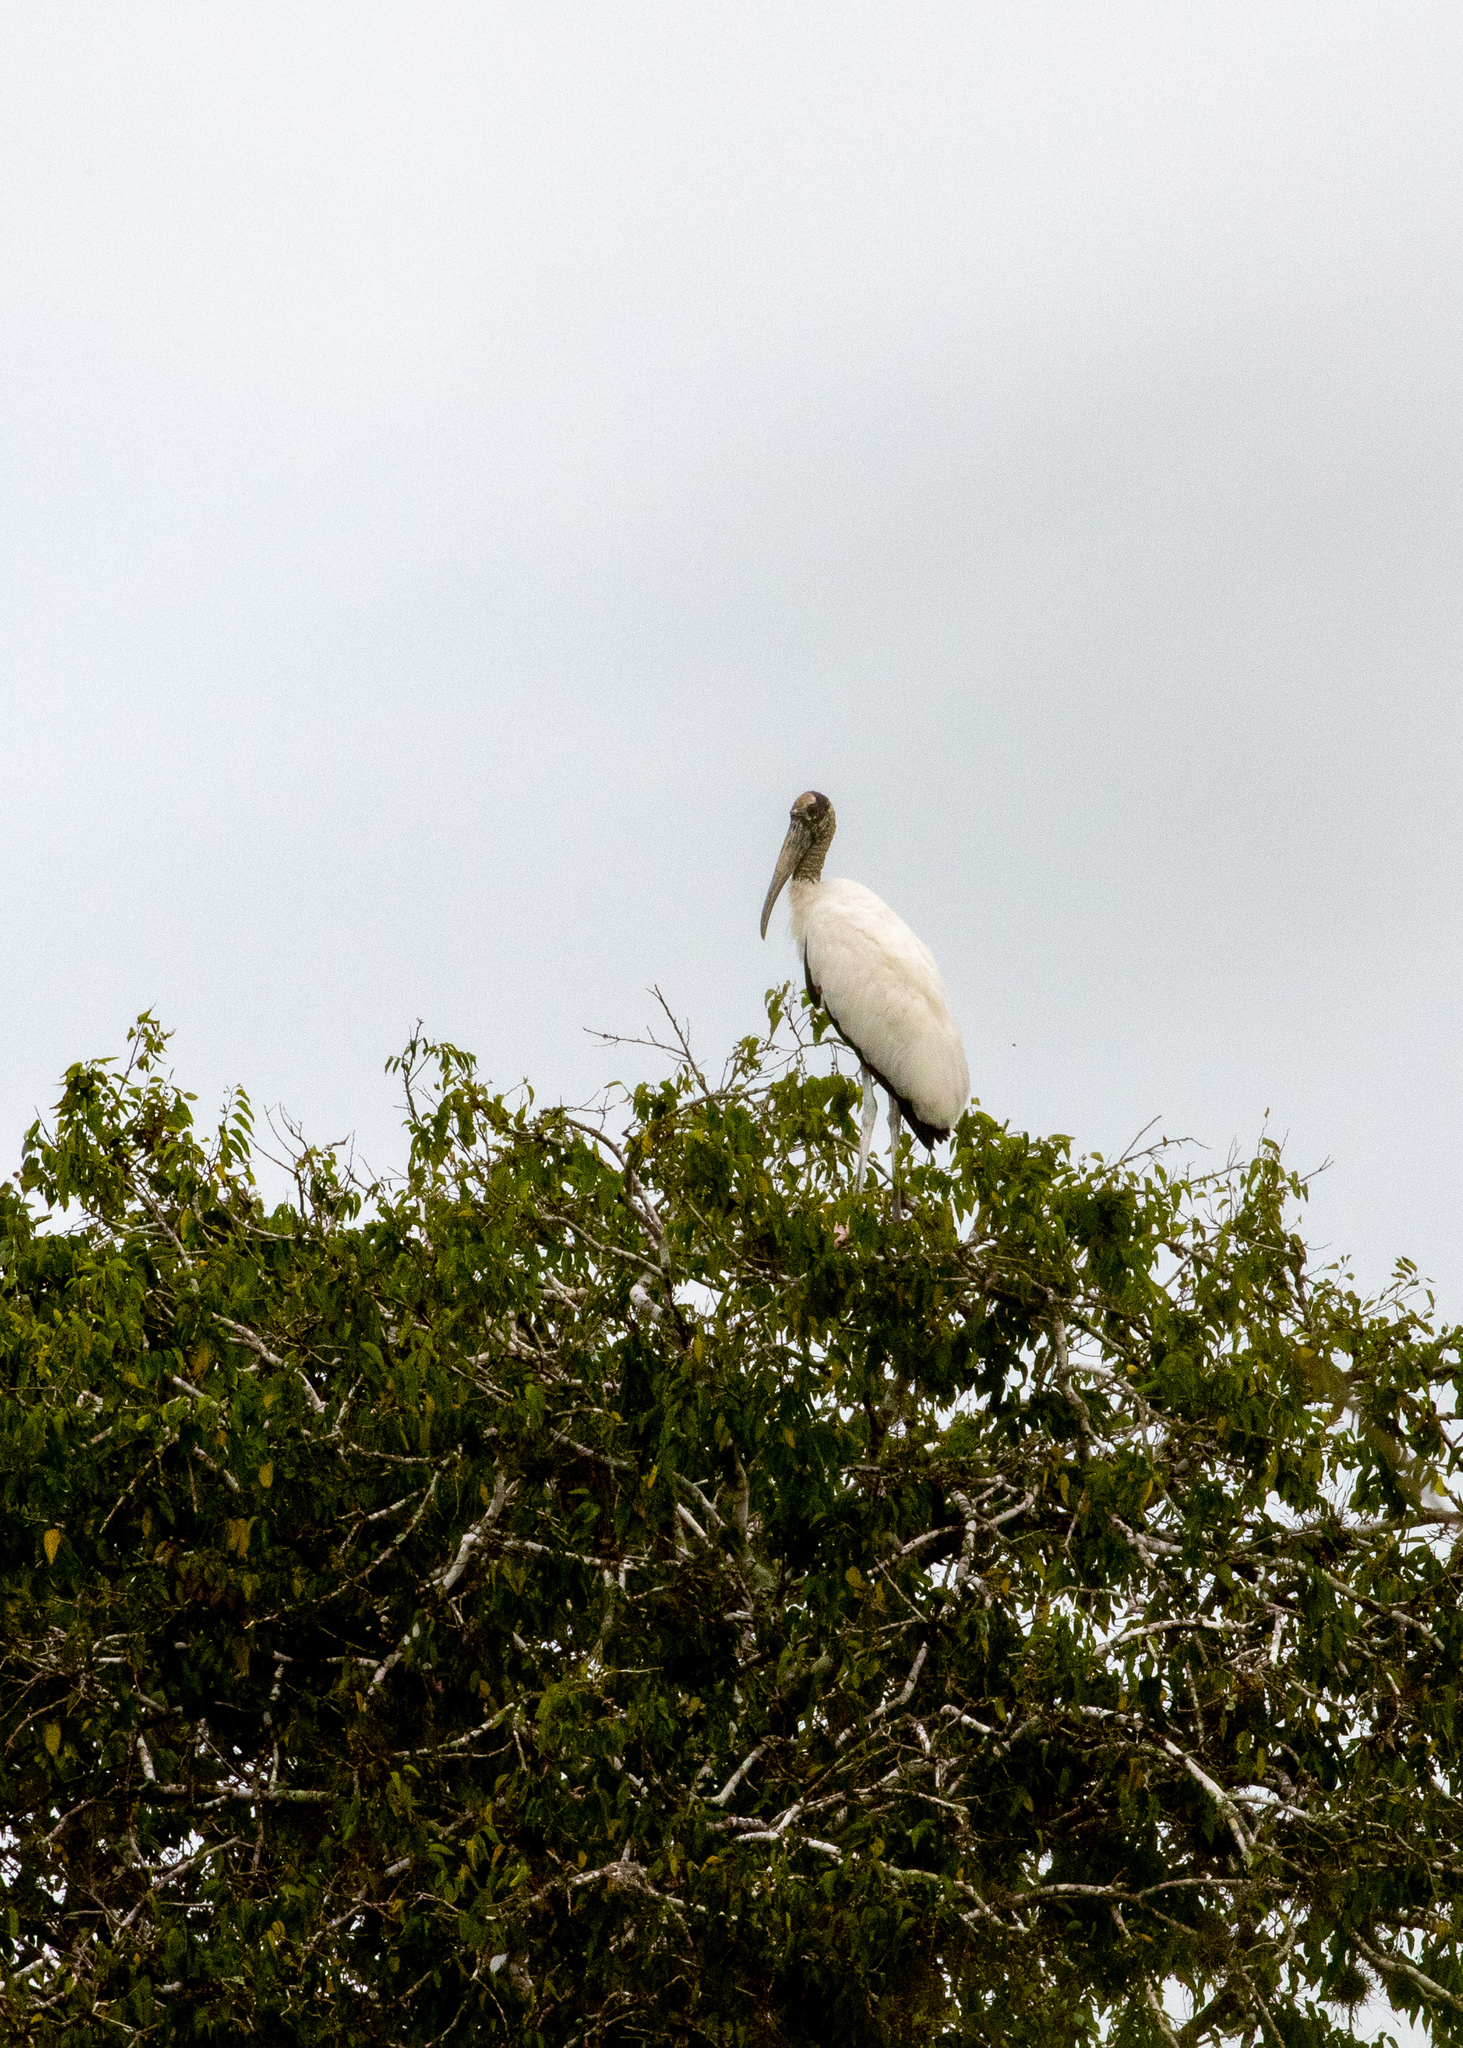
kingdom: Animalia
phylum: Chordata
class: Aves
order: Ciconiiformes
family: Ciconiidae
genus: Mycteria
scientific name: Mycteria americana
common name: Wood stork
